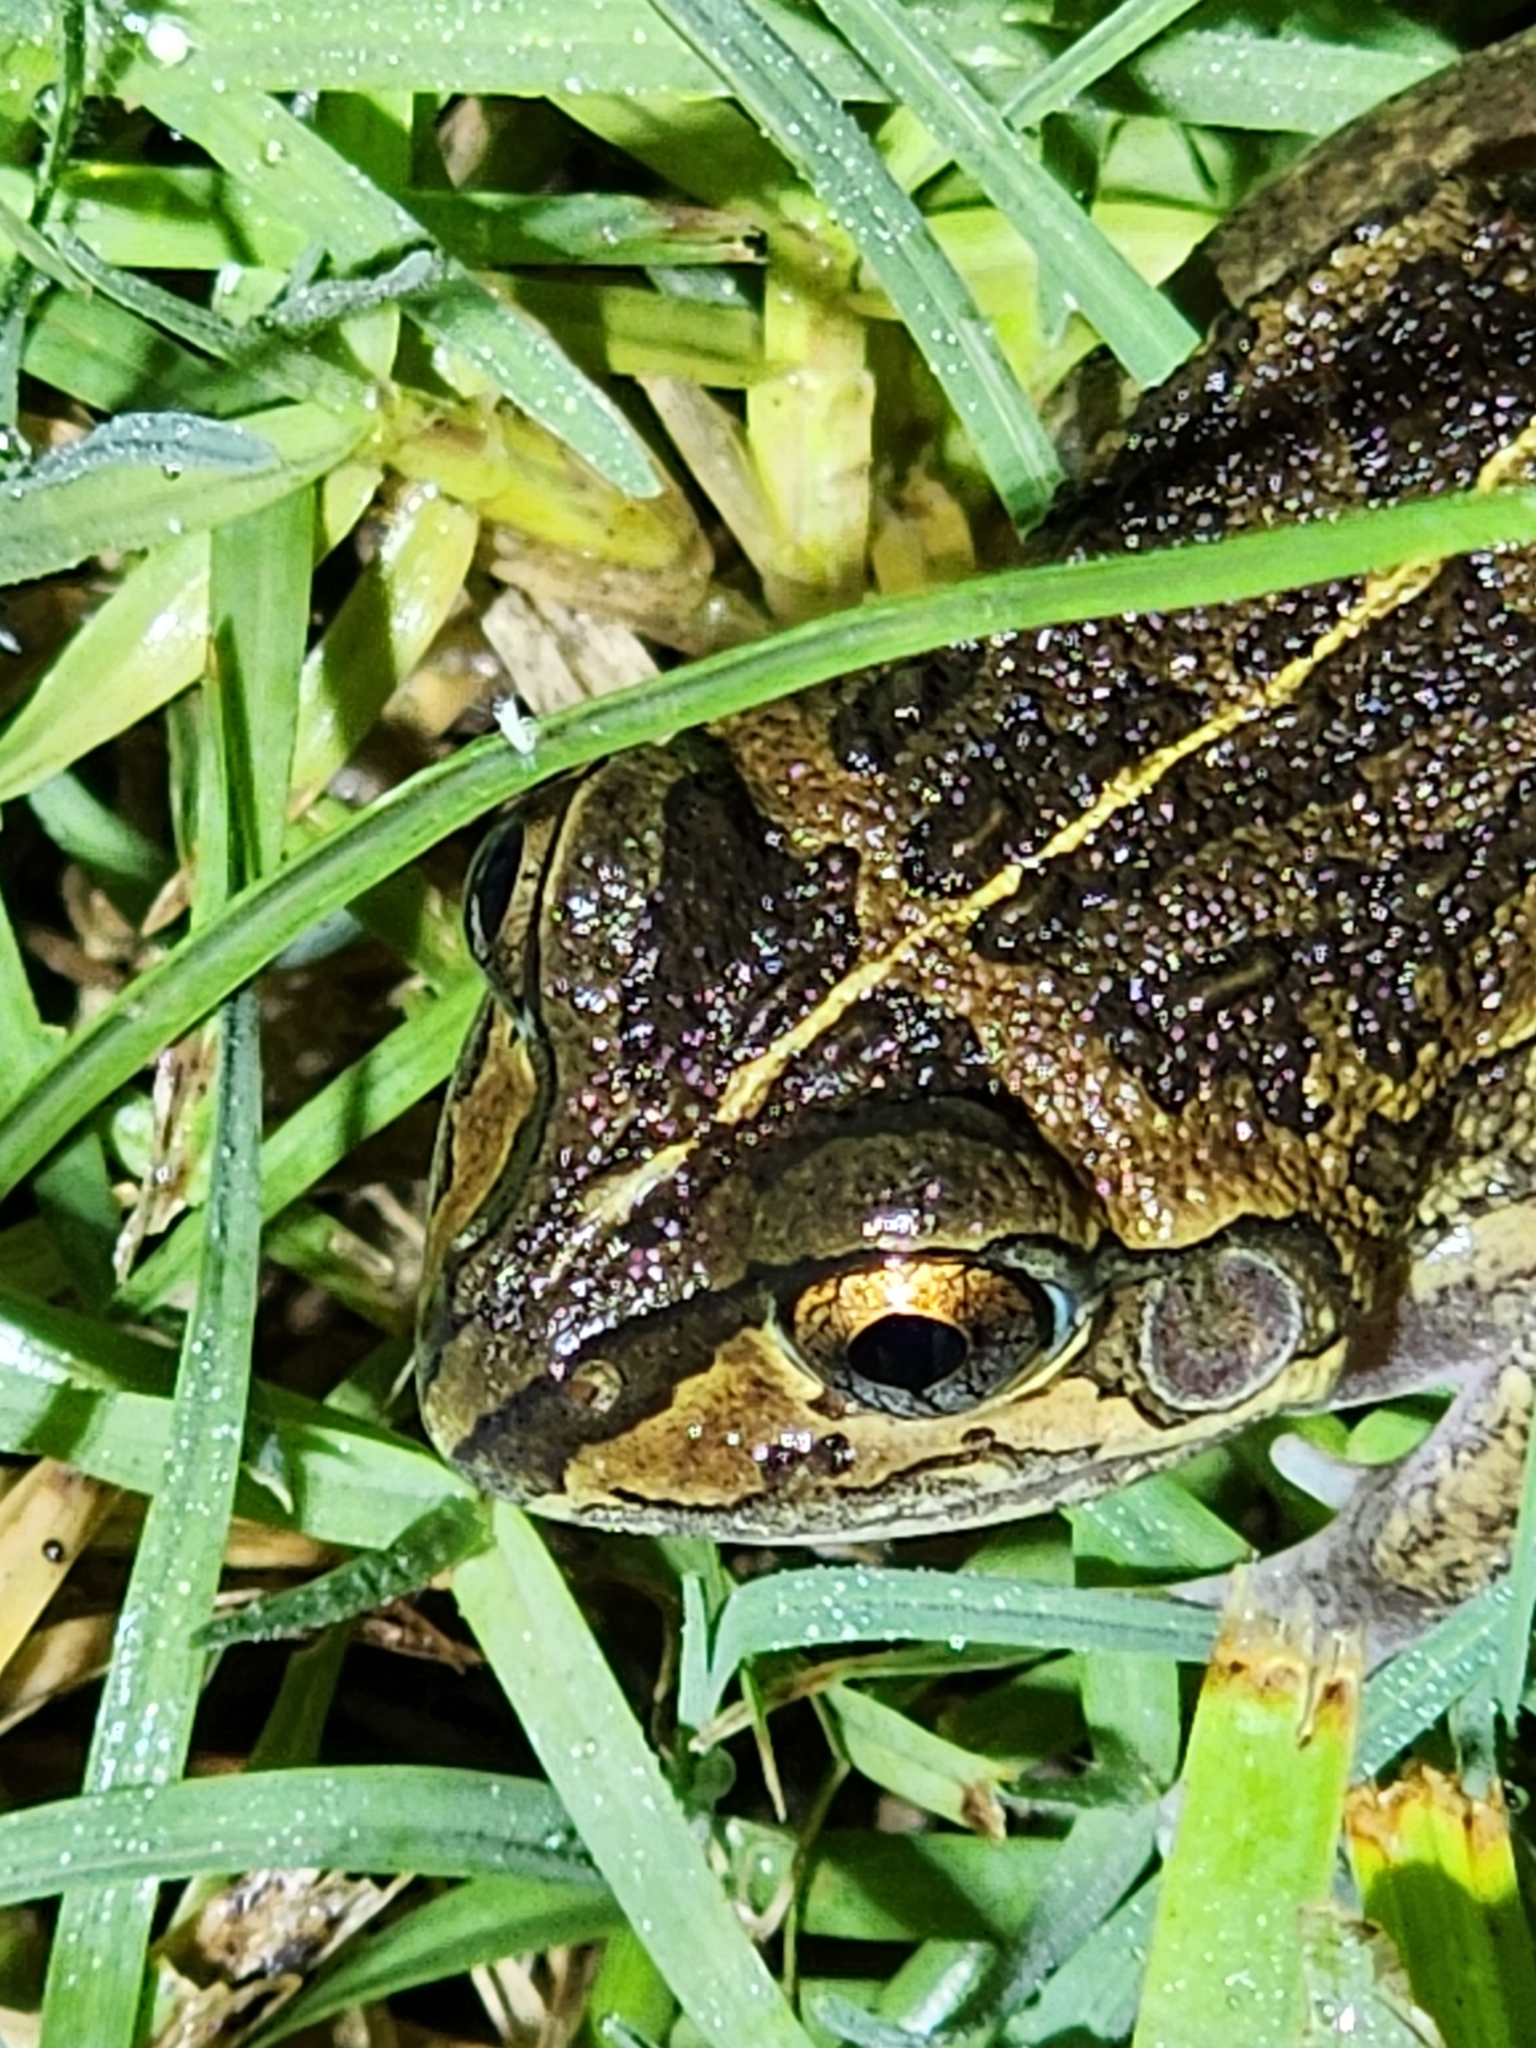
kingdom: Animalia
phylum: Chordata
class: Amphibia
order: Anura
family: Pelodryadidae
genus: Ranoidea
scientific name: Ranoidea brevipes
